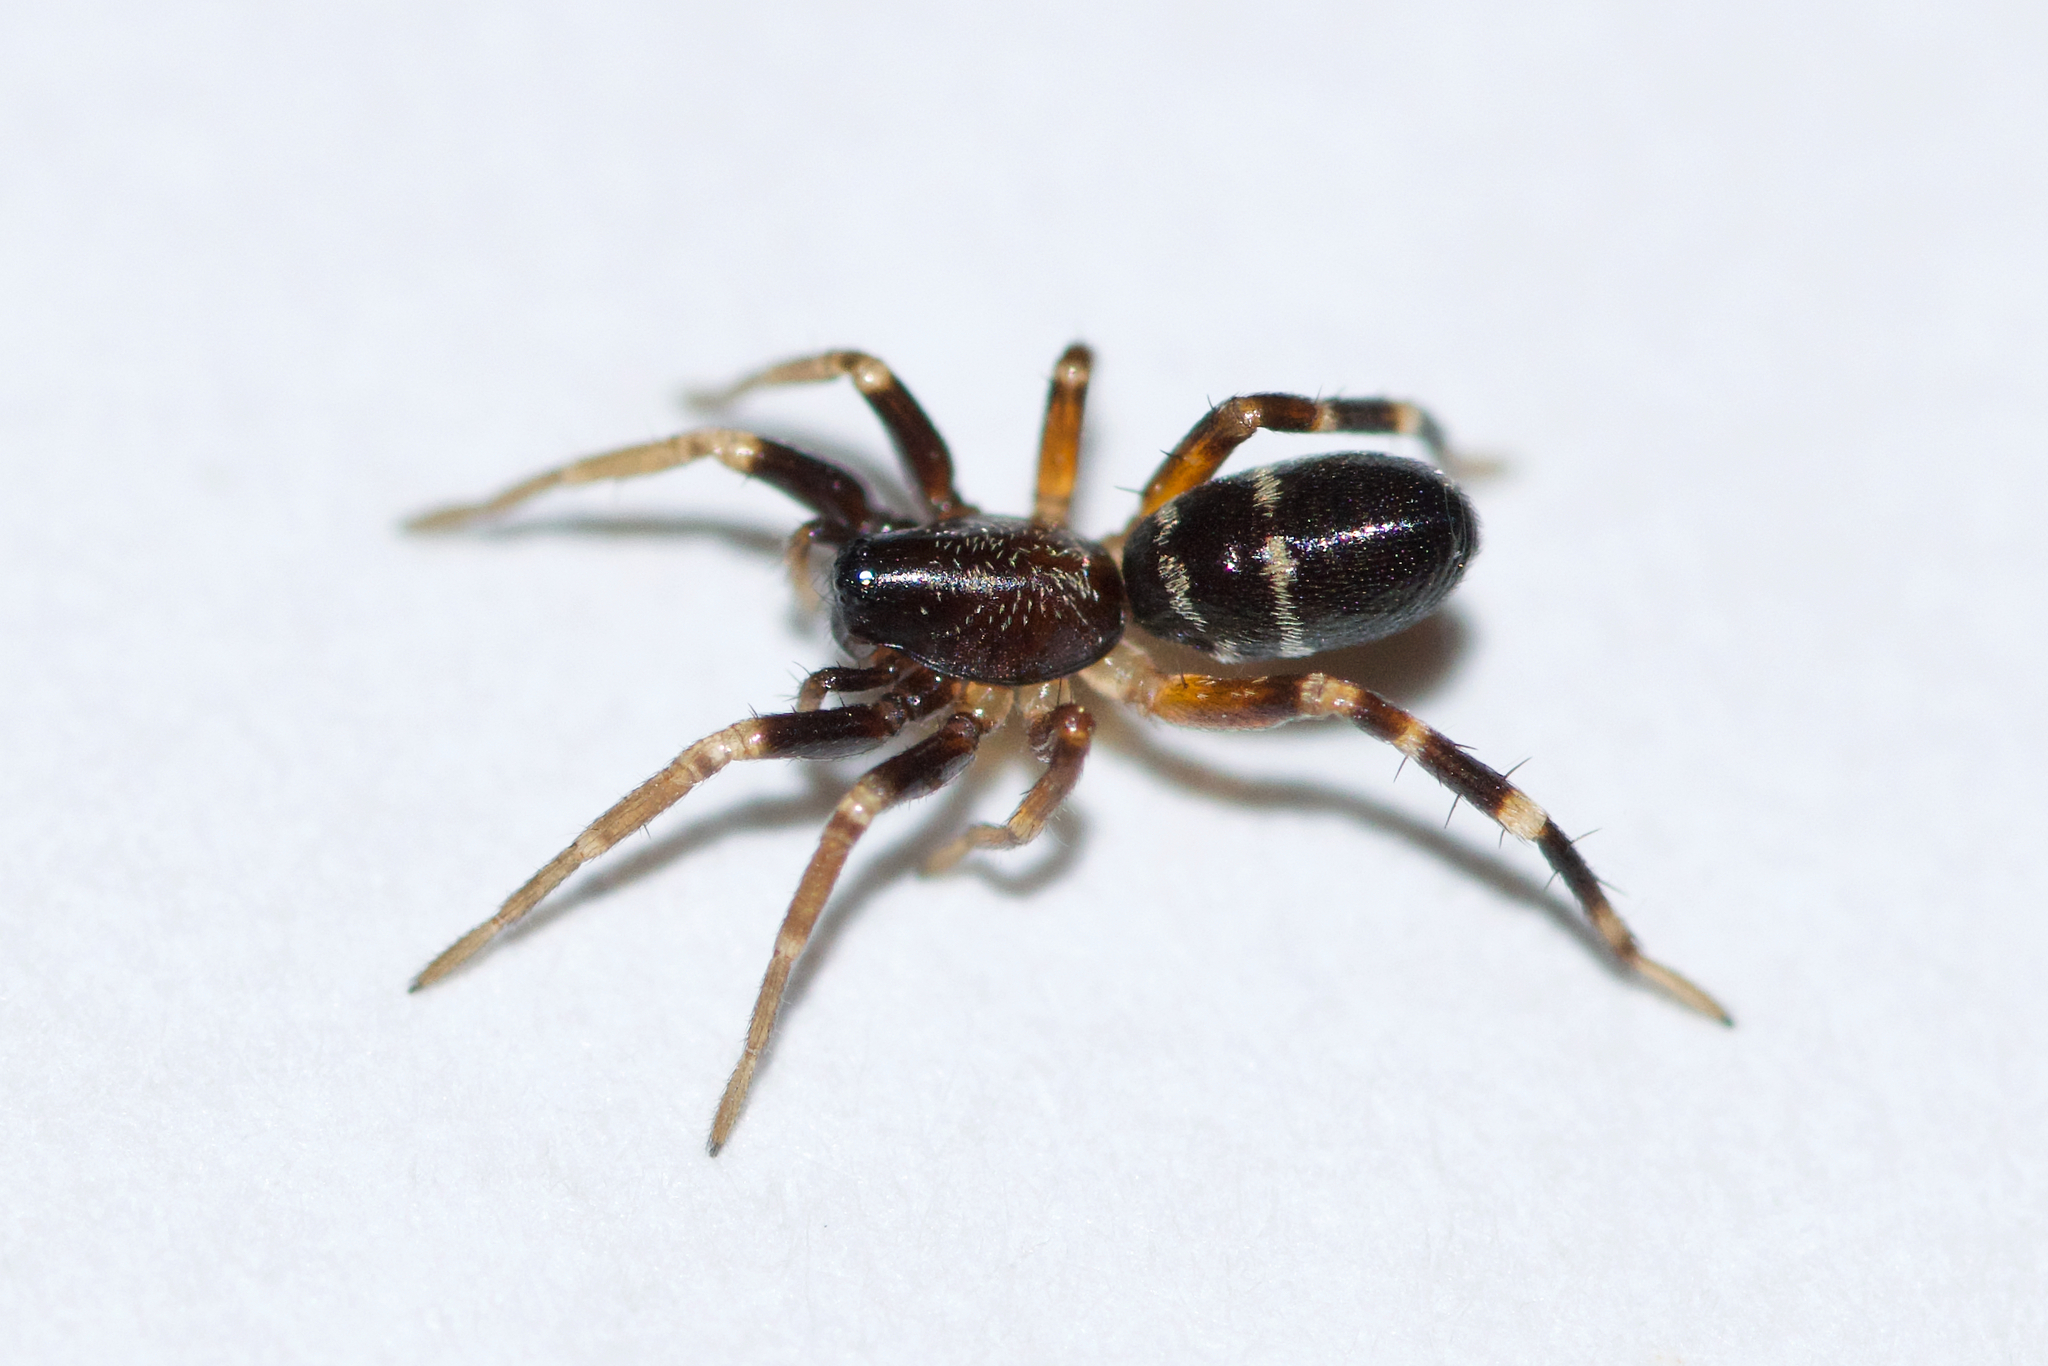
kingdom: Animalia
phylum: Arthropoda
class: Arachnida
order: Araneae
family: Corinnidae
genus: Castianeira
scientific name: Castianeira cingulata
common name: Two-banded ant-mimic sac spider
